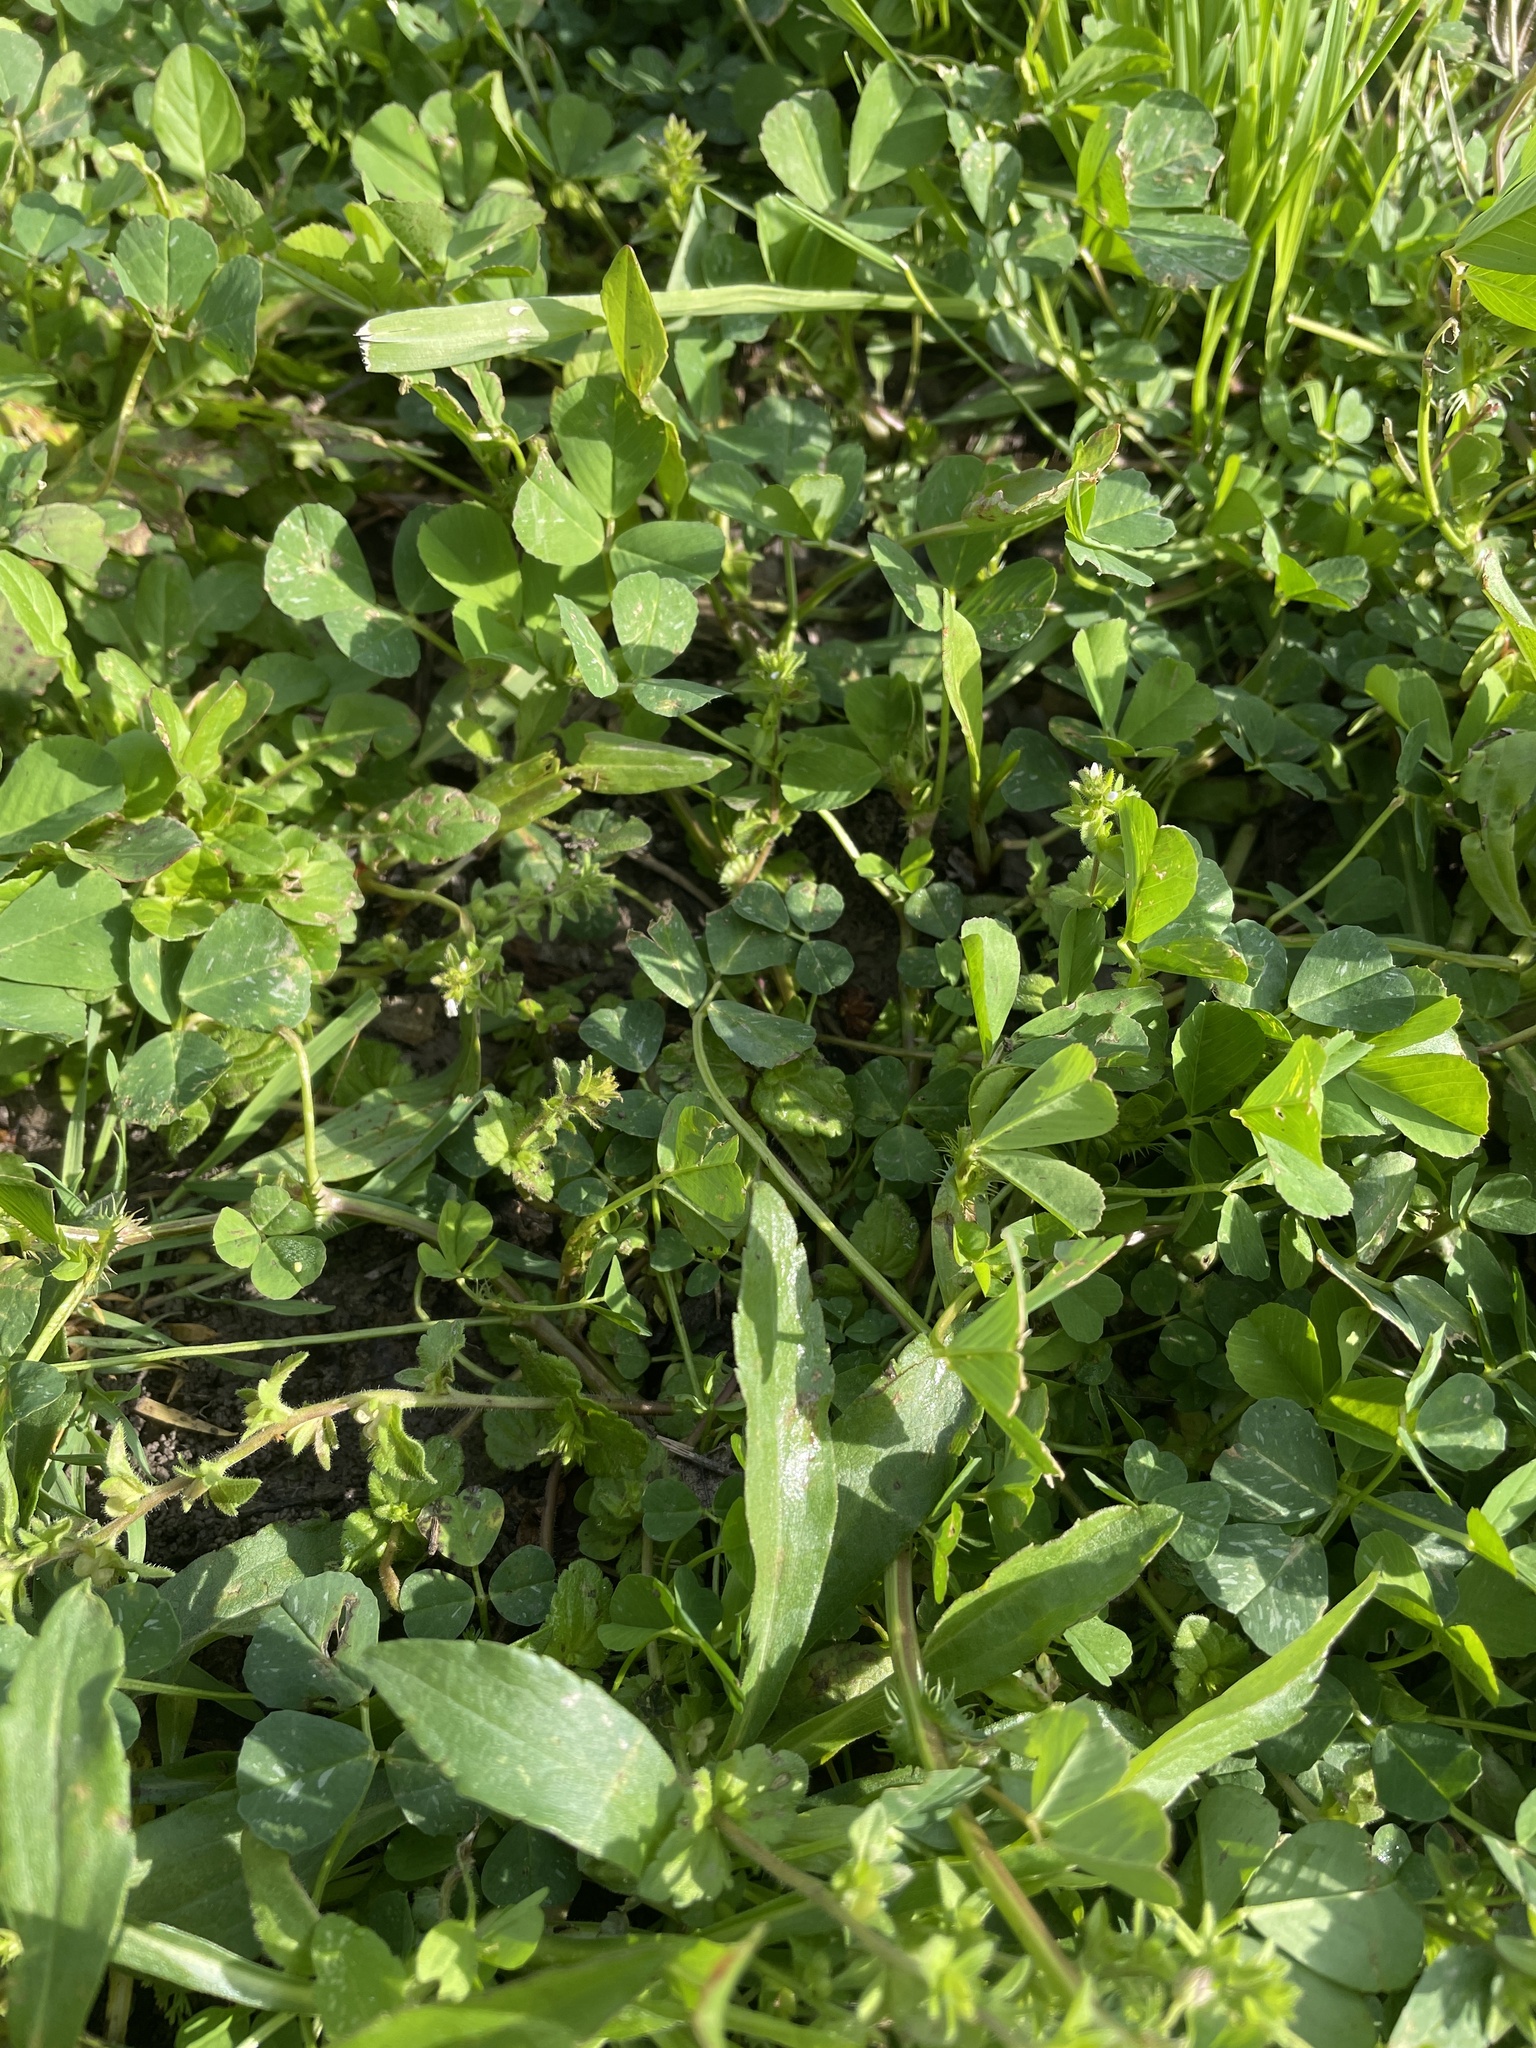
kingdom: Plantae
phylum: Tracheophyta
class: Magnoliopsida
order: Lamiales
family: Plantaginaceae
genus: Veronica
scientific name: Veronica arvensis
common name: Corn speedwell
